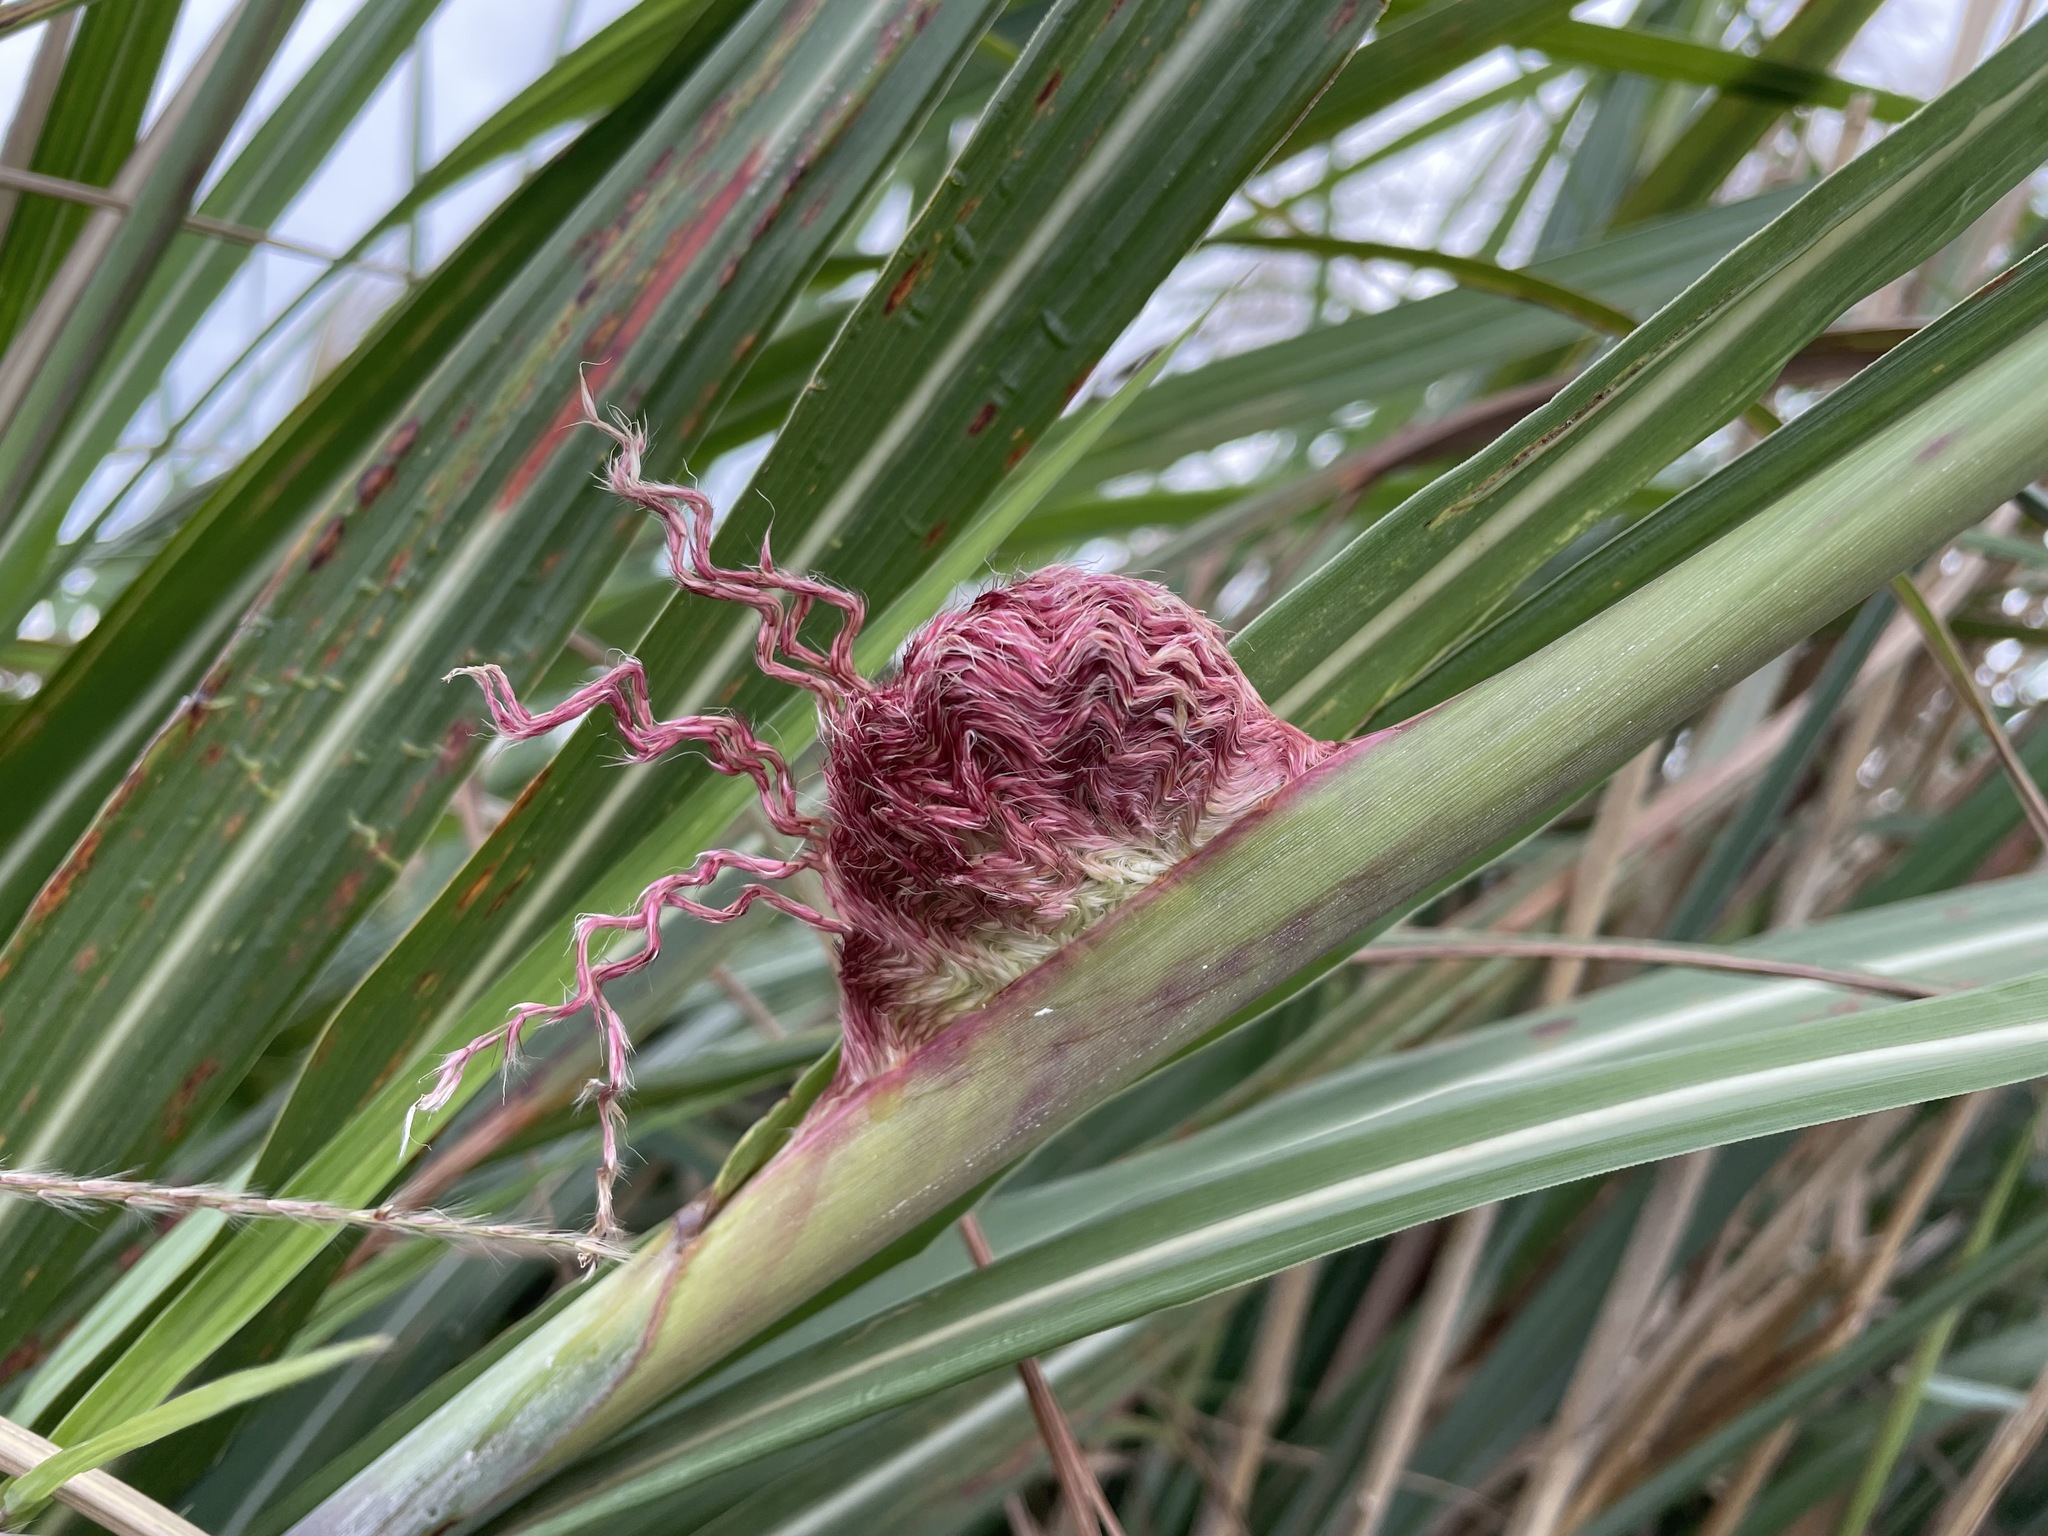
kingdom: Plantae
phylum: Tracheophyta
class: Liliopsida
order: Poales
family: Poaceae
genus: Miscanthus
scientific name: Miscanthus sinensis
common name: Chinese silvergrass
